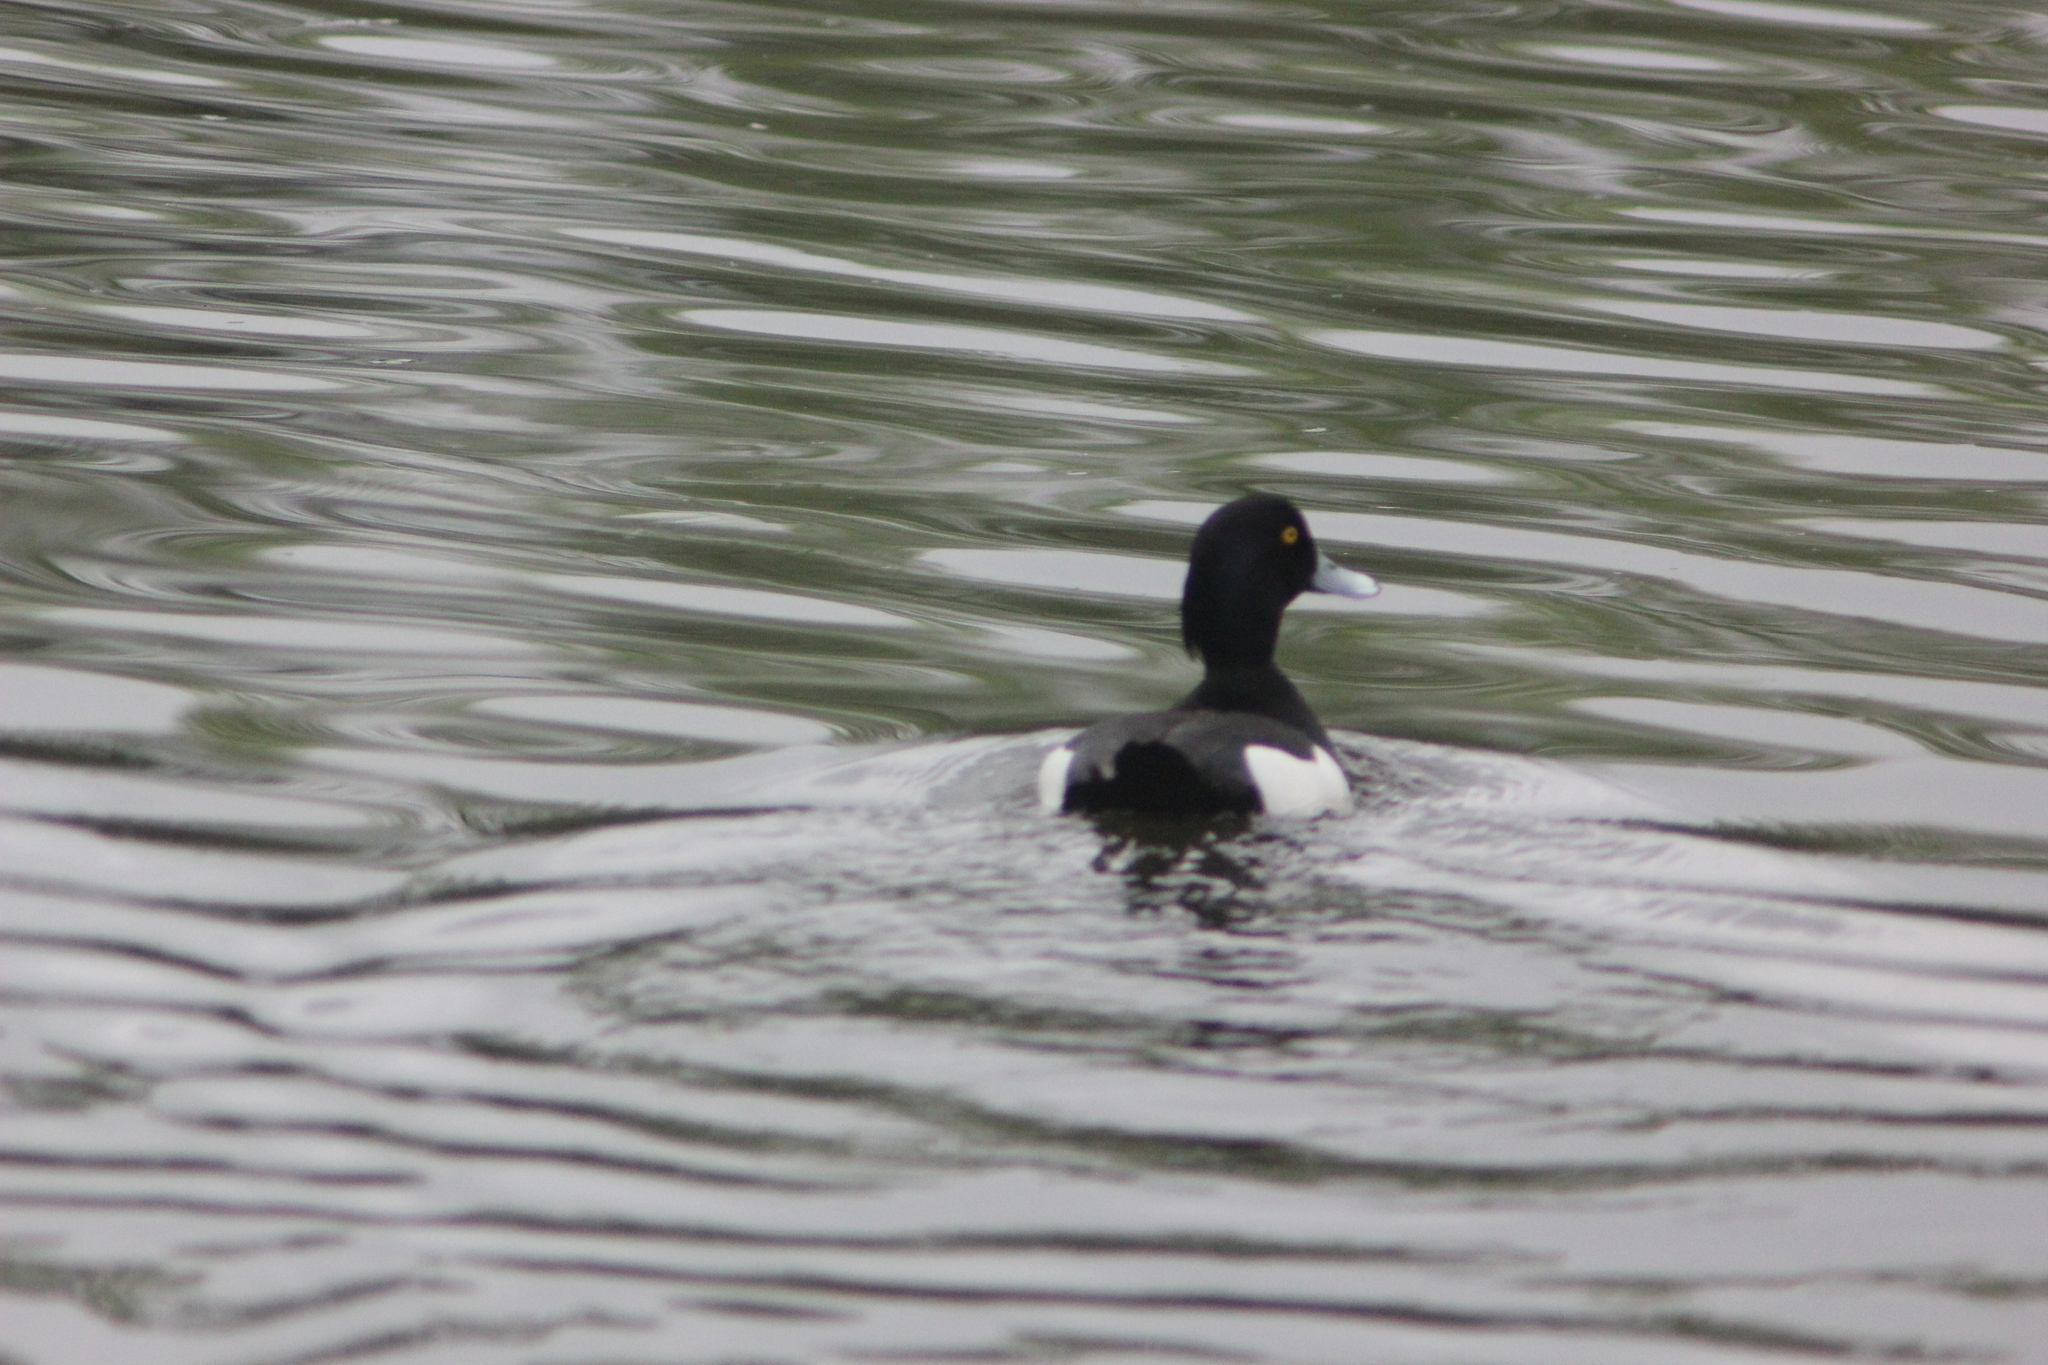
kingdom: Animalia
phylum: Chordata
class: Aves
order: Anseriformes
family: Anatidae
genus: Aythya
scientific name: Aythya fuligula
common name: Tufted duck
